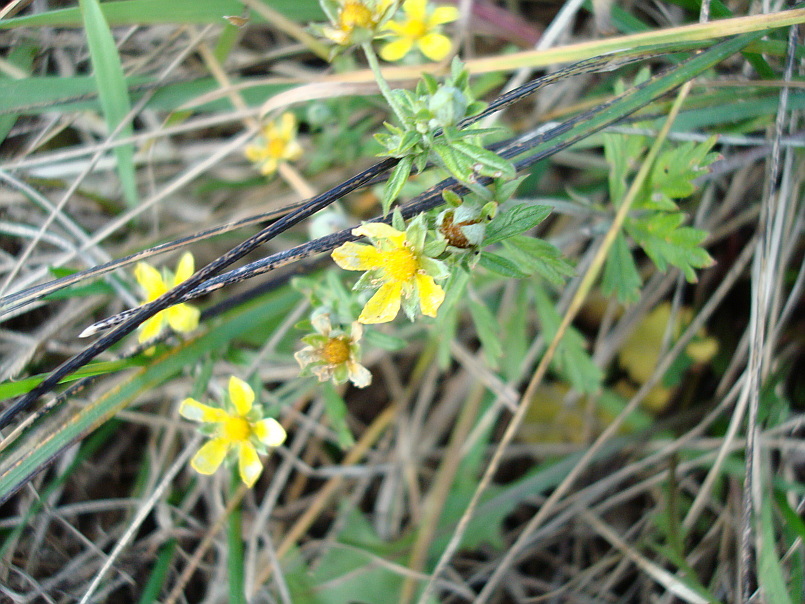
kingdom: Plantae
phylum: Tracheophyta
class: Magnoliopsida
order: Rosales
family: Rosaceae
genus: Potentilla
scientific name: Potentilla argentea
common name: Hoary cinquefoil
